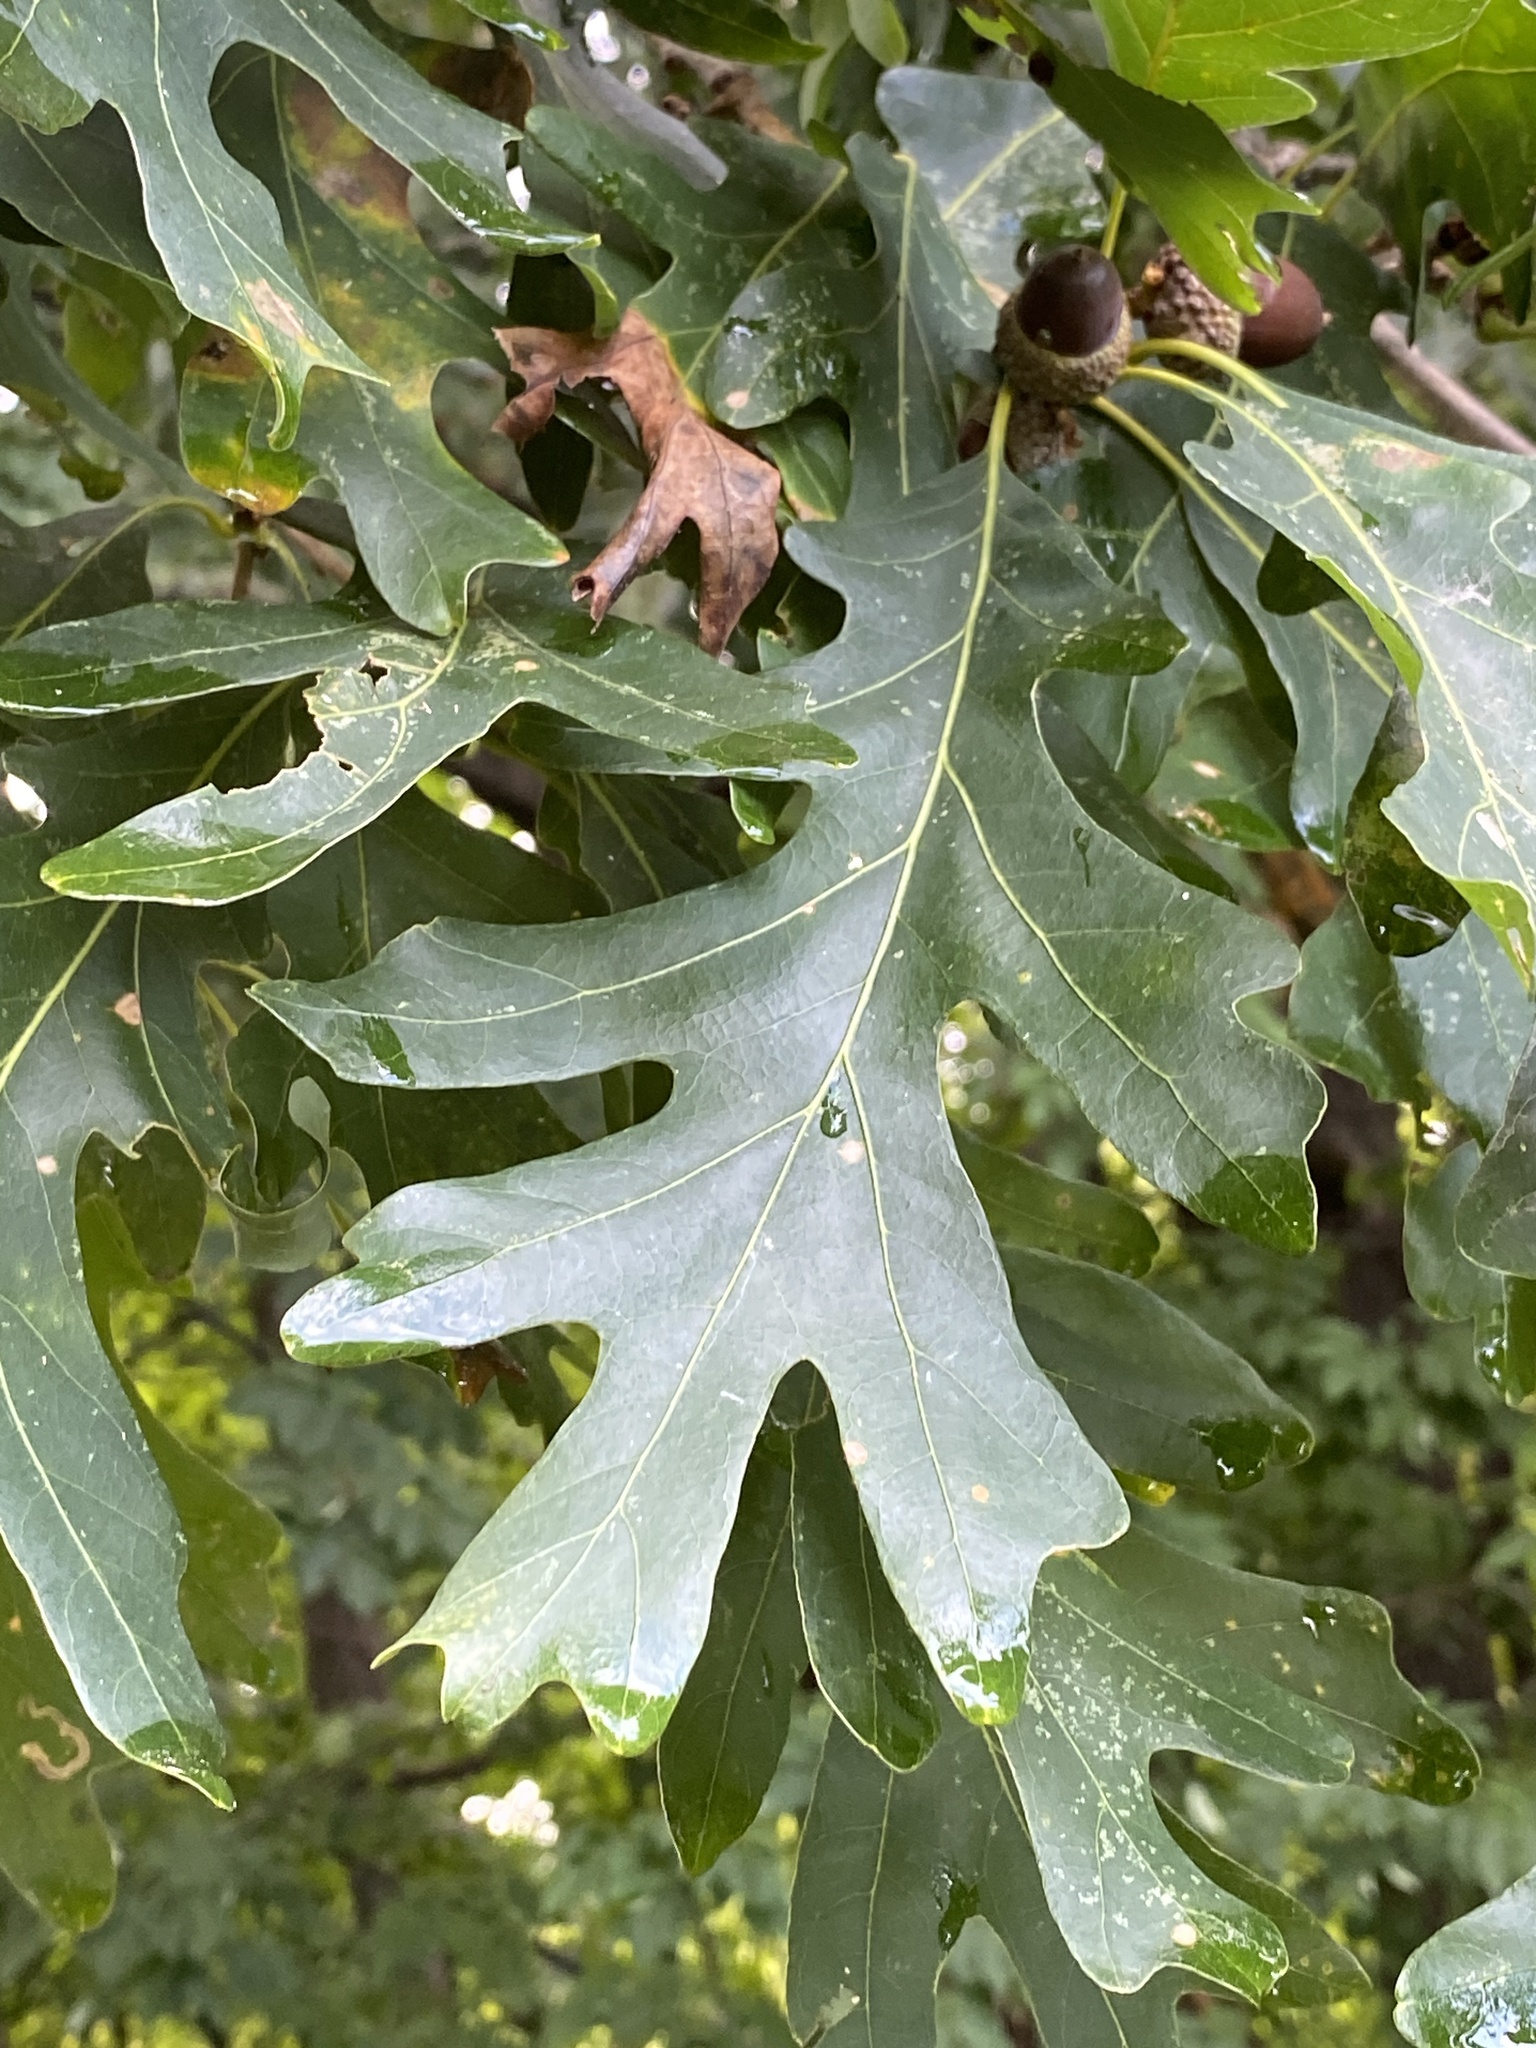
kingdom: Plantae
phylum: Tracheophyta
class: Magnoliopsida
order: Fagales
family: Fagaceae
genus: Quercus
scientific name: Quercus alba
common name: White oak
